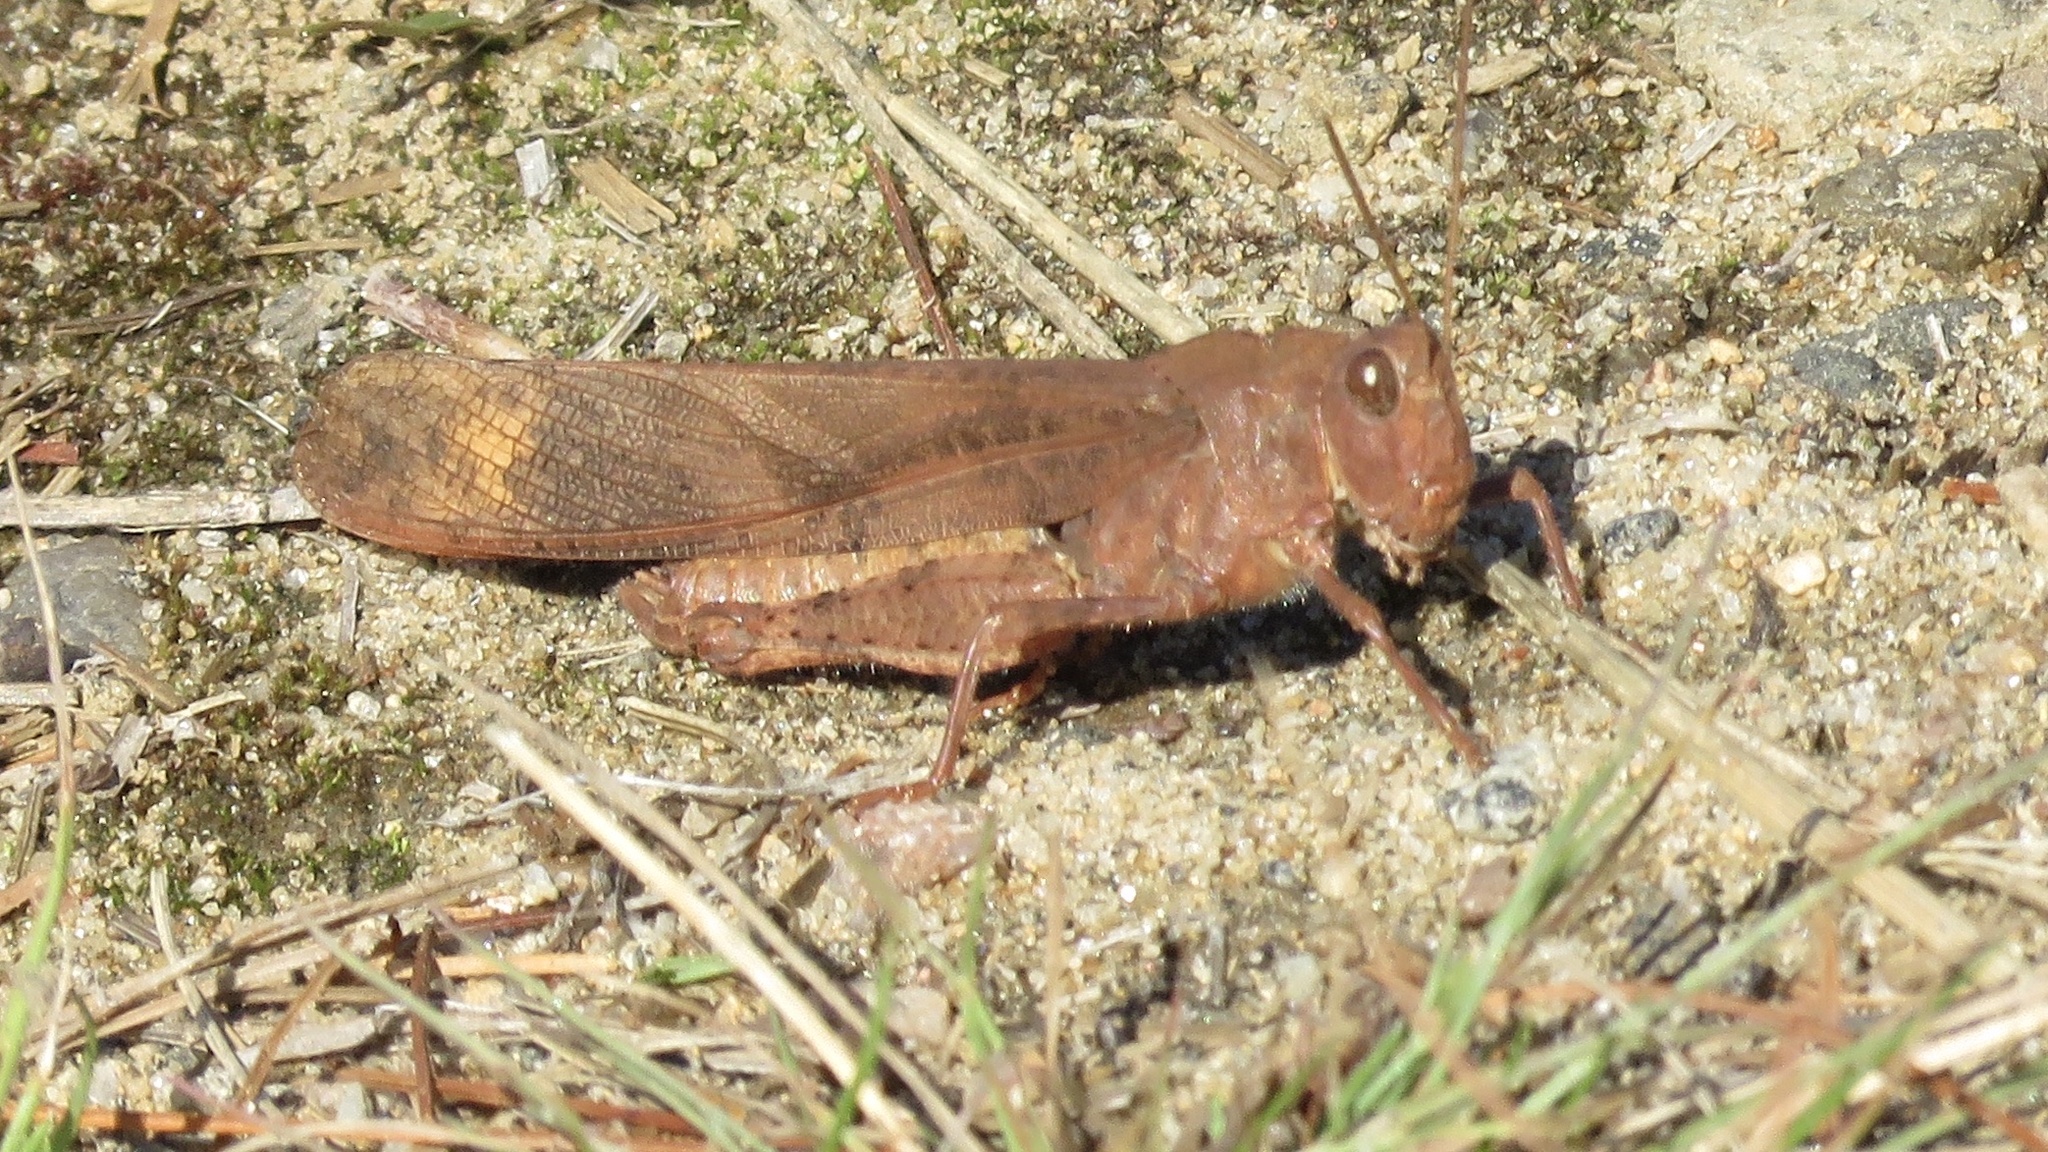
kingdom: Animalia
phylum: Arthropoda
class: Insecta
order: Orthoptera
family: Acrididae
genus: Dissosteira
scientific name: Dissosteira carolina
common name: Carolina grasshopper
